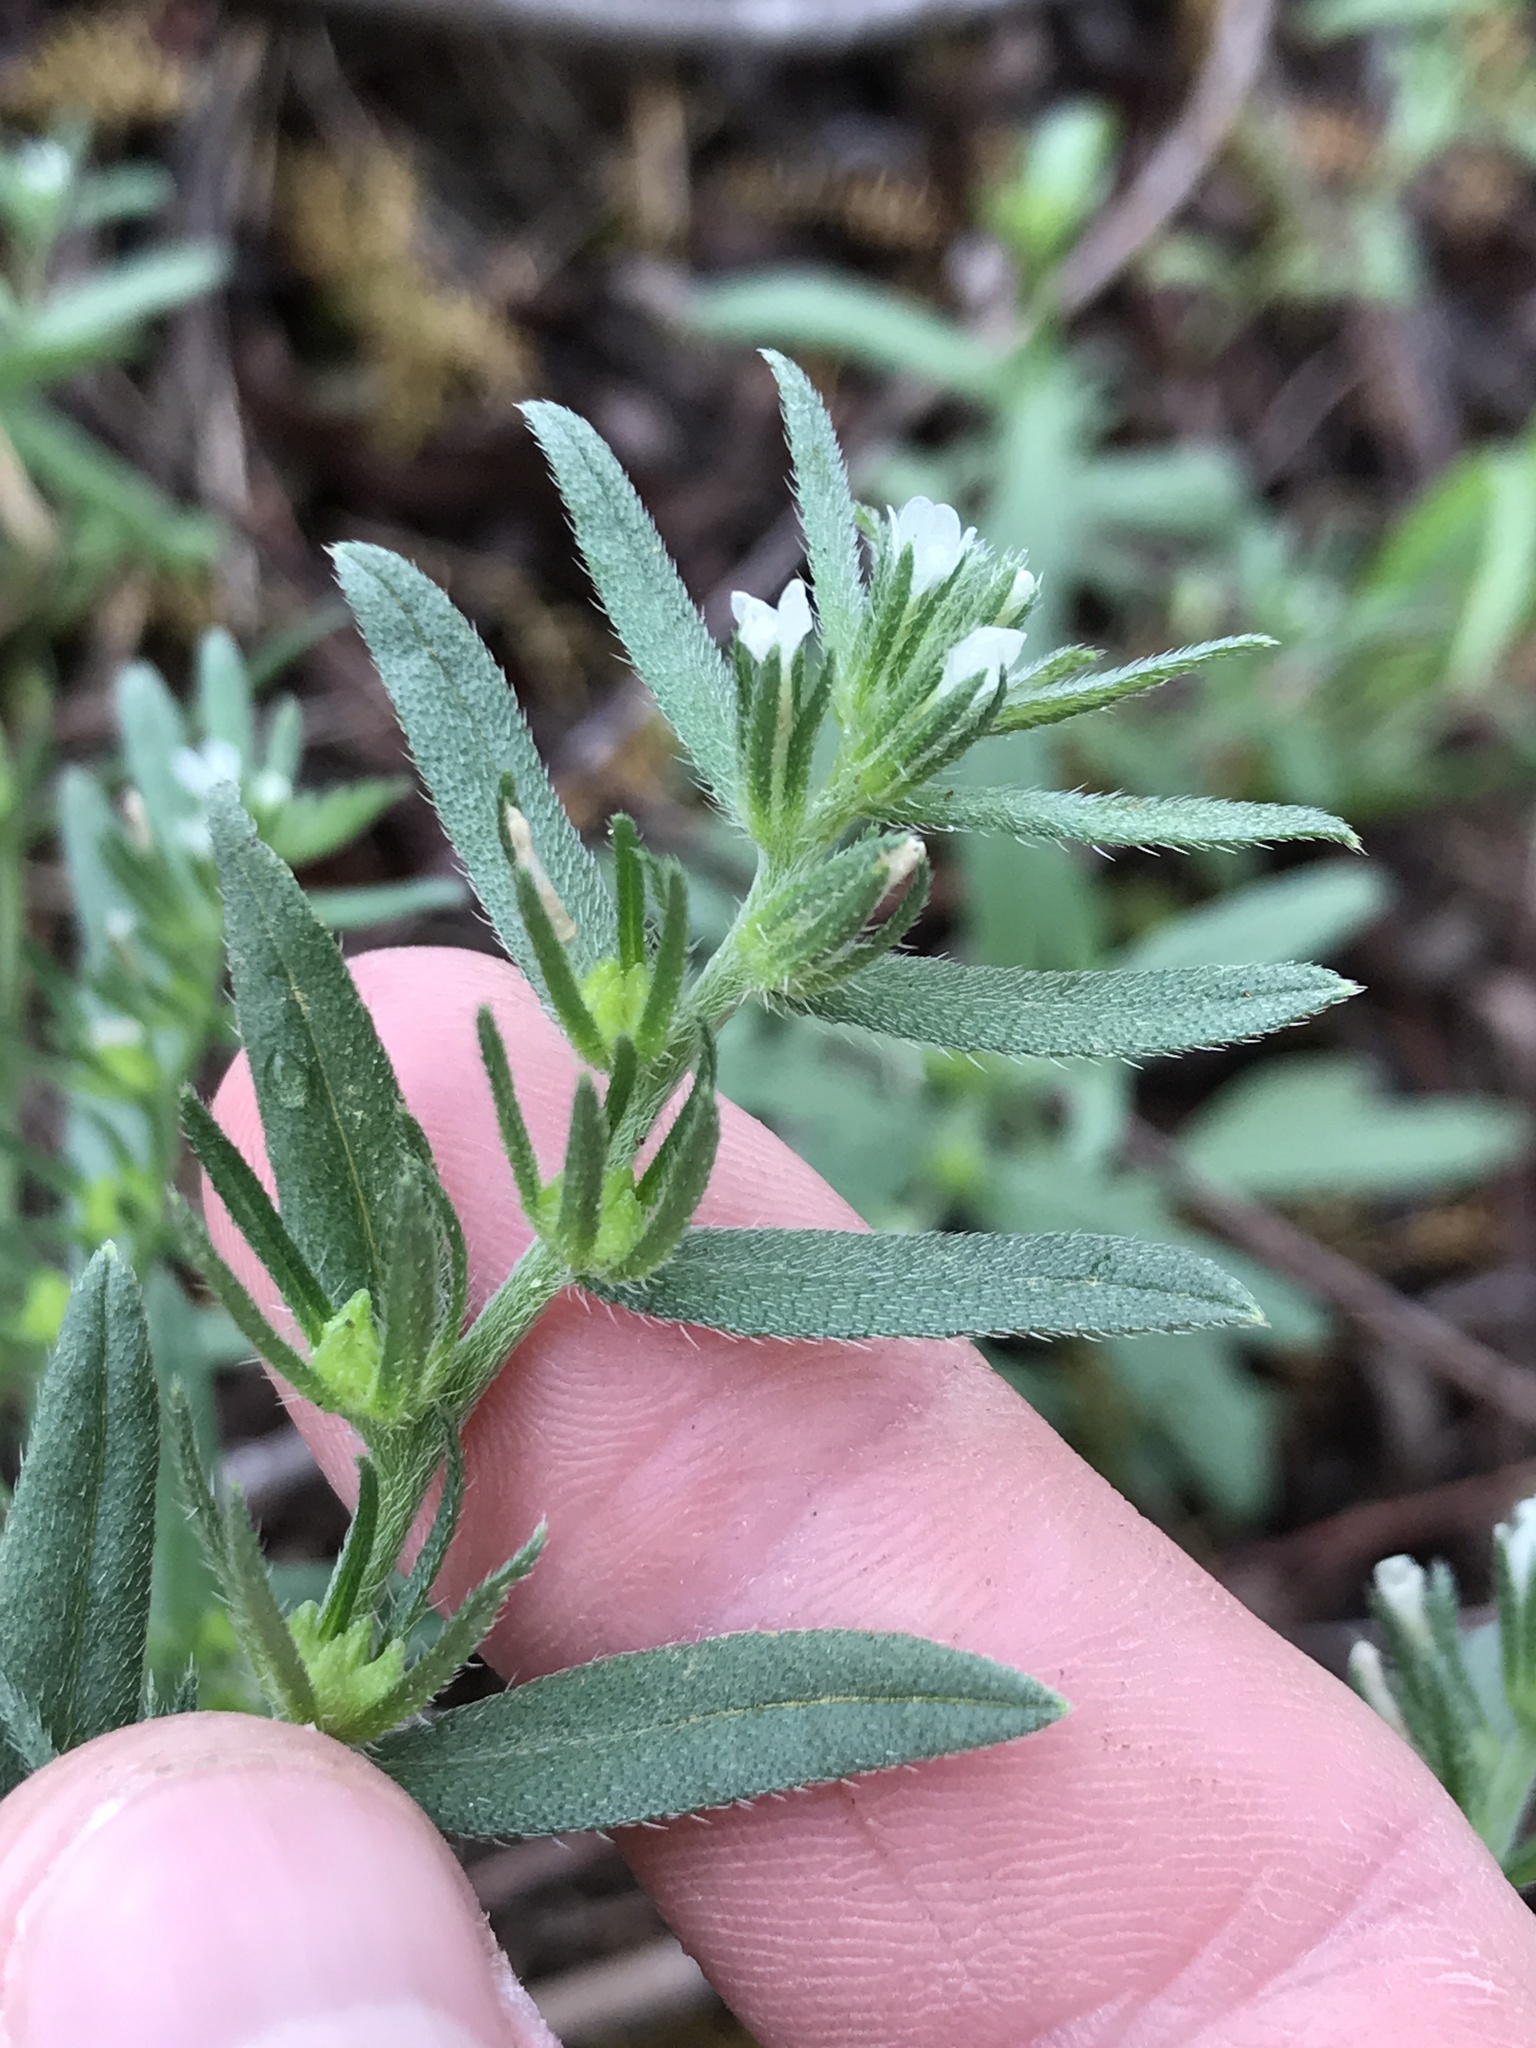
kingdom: Plantae
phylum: Tracheophyta
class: Magnoliopsida
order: Boraginales
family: Boraginaceae
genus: Buglossoides
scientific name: Buglossoides arvensis
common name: Corn gromwell
